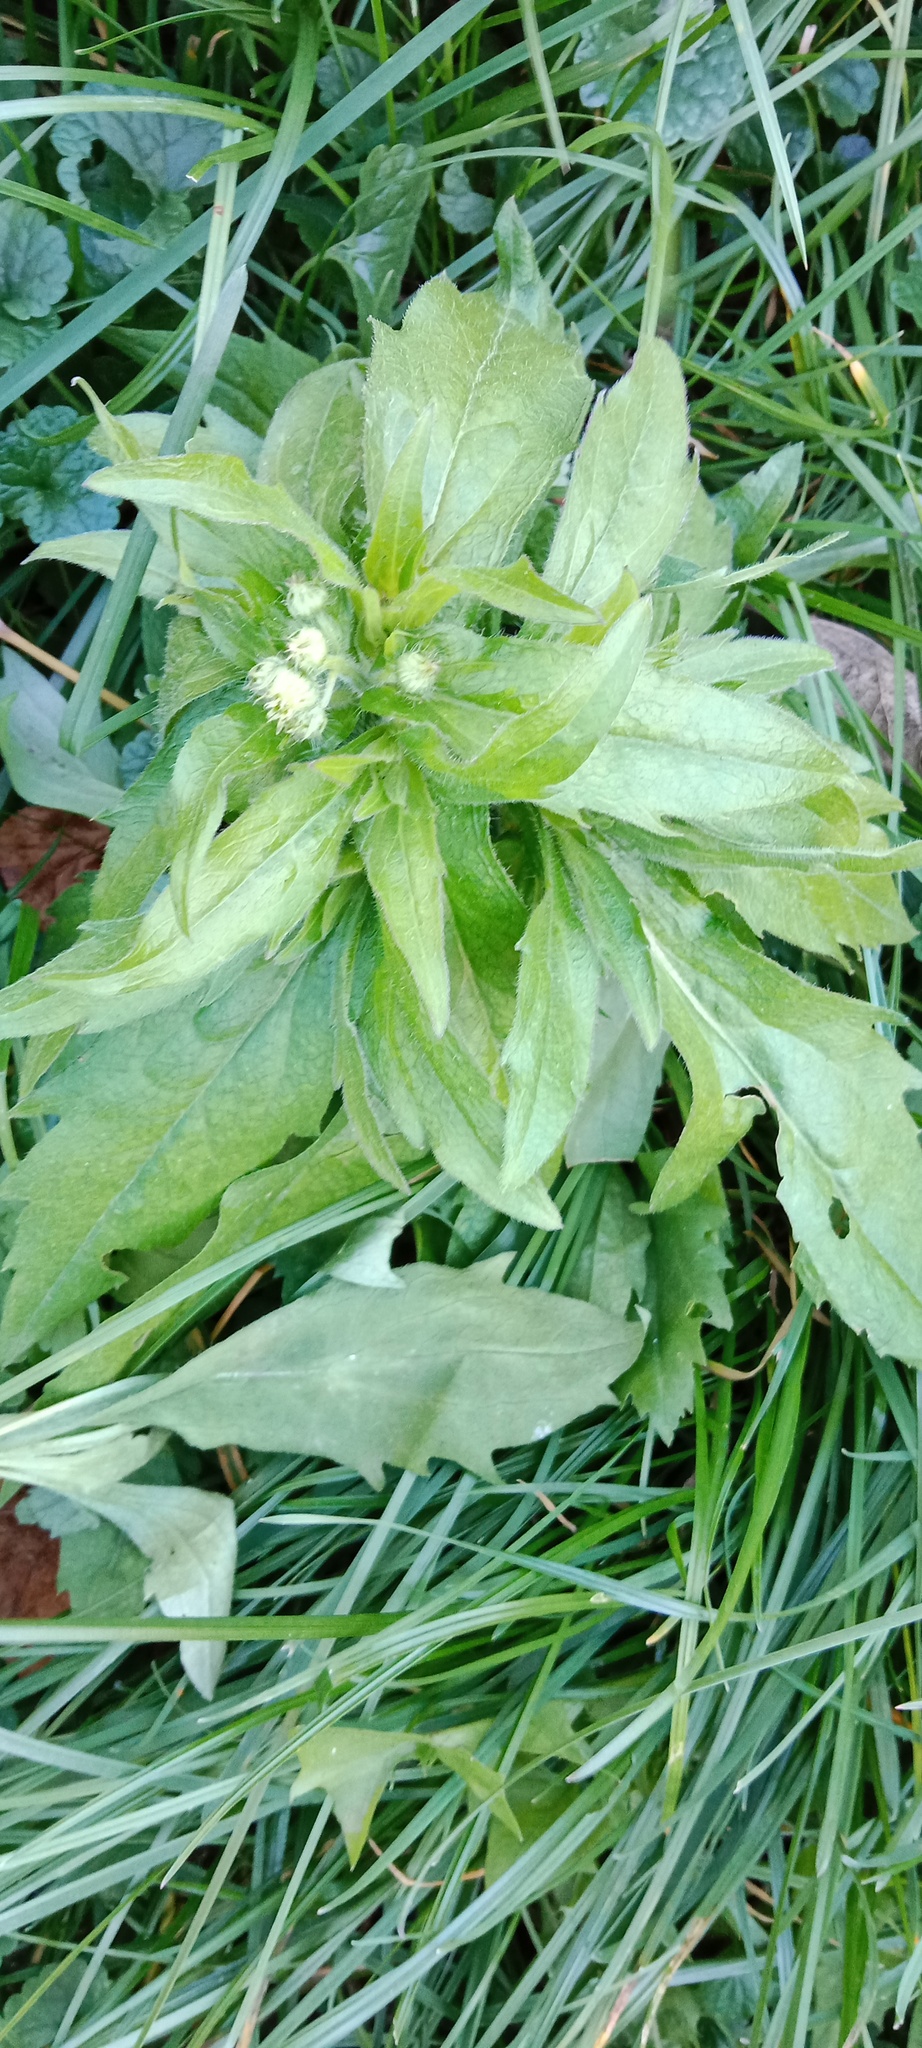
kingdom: Plantae
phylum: Tracheophyta
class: Magnoliopsida
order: Asterales
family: Asteraceae
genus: Erigeron
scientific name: Erigeron annuus
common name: Tall fleabane
